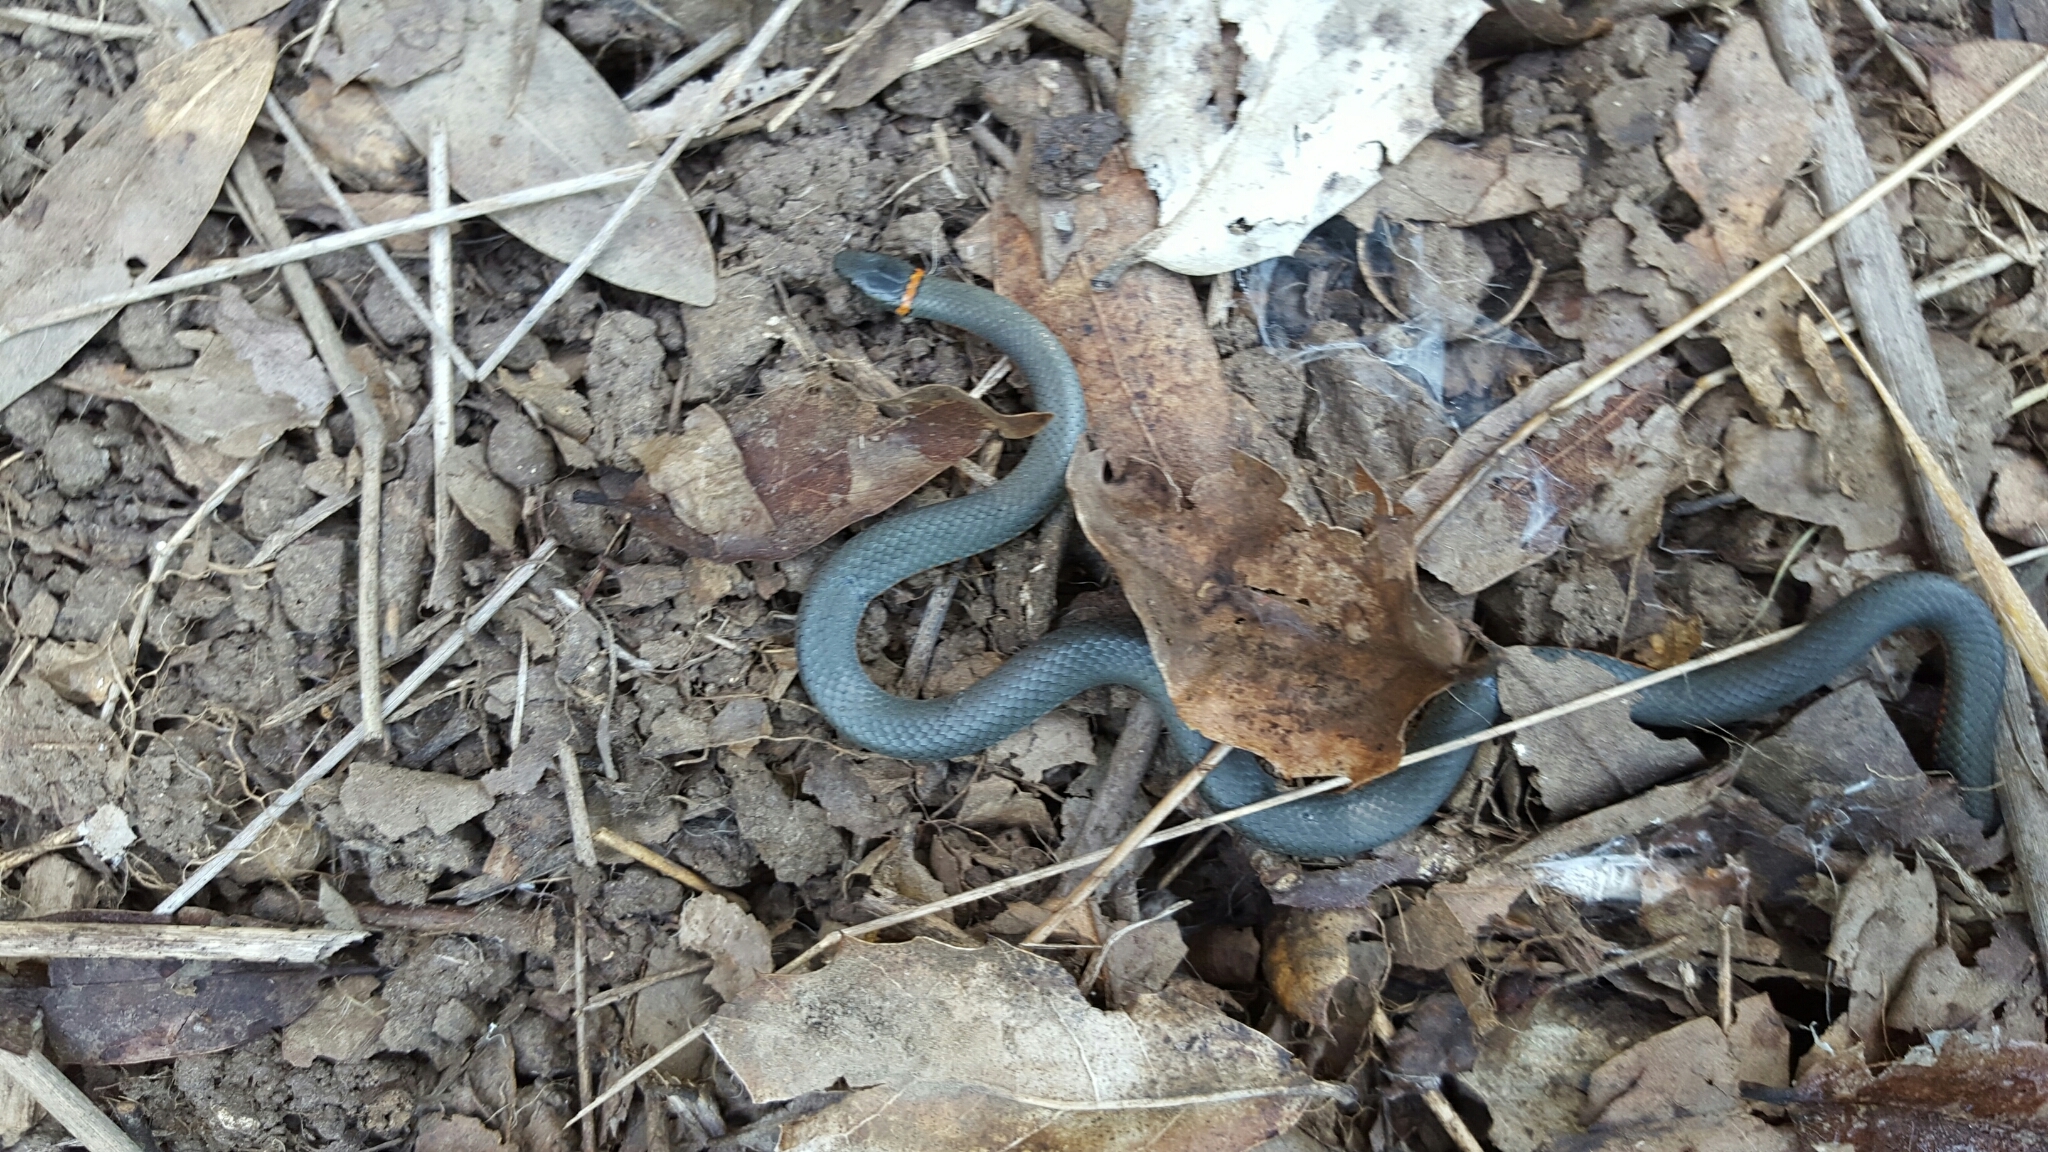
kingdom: Animalia
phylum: Chordata
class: Squamata
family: Colubridae
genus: Diadophis
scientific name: Diadophis punctatus
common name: Ringneck snake
